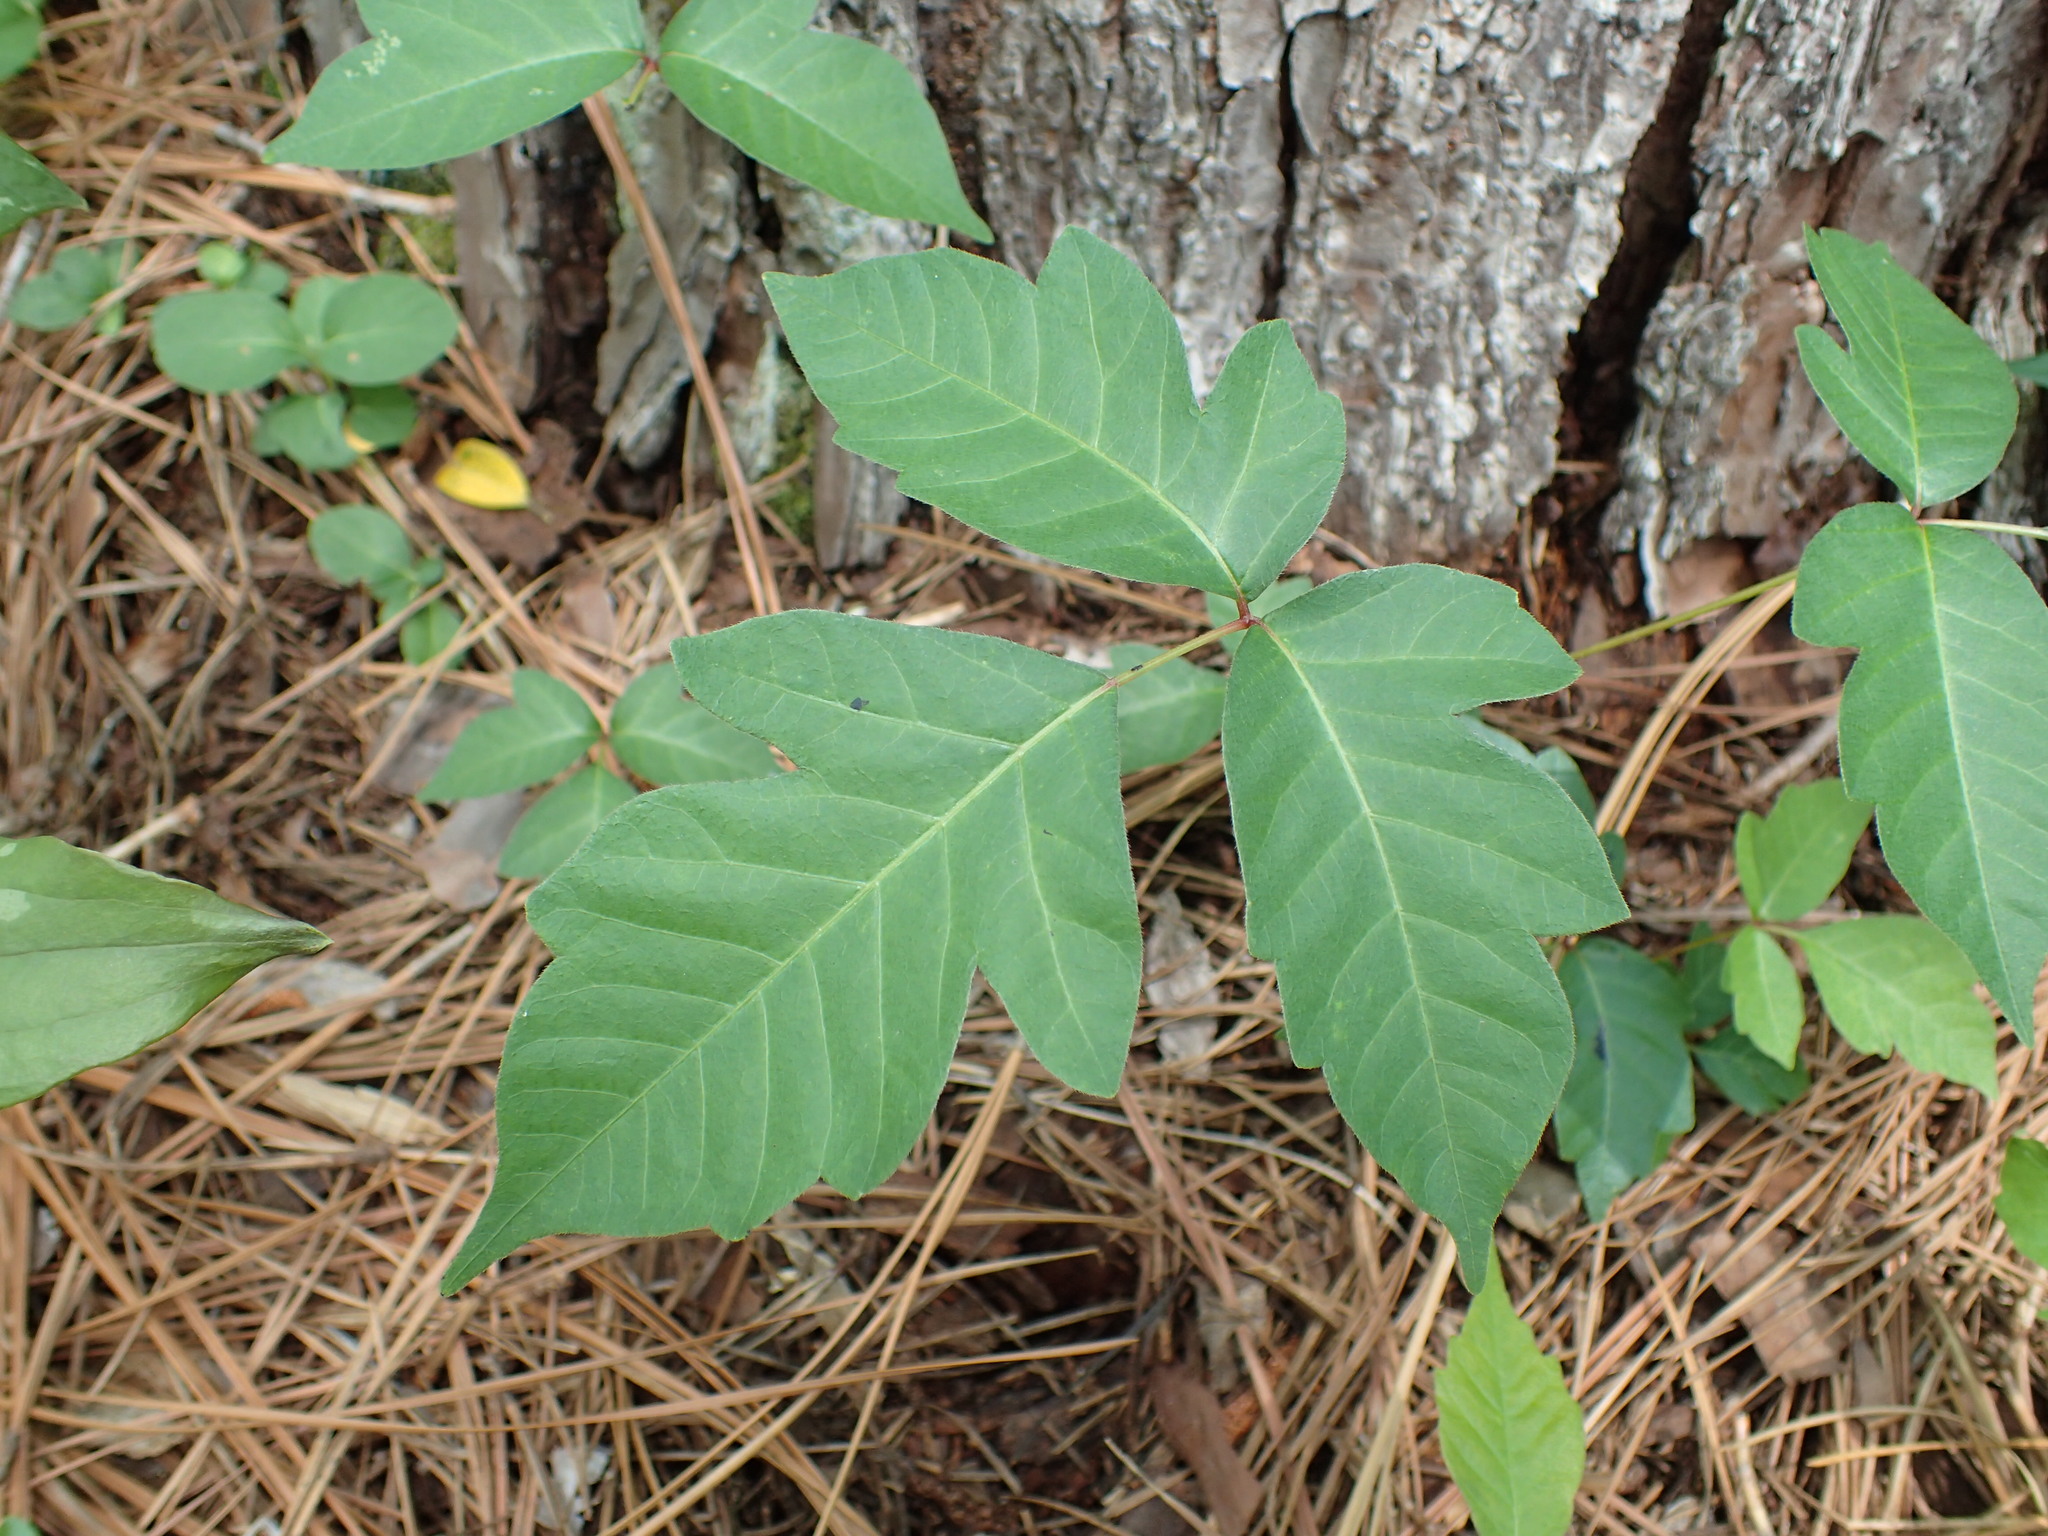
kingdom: Plantae
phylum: Tracheophyta
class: Magnoliopsida
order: Sapindales
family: Anacardiaceae
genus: Toxicodendron
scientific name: Toxicodendron radicans
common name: Poison ivy
